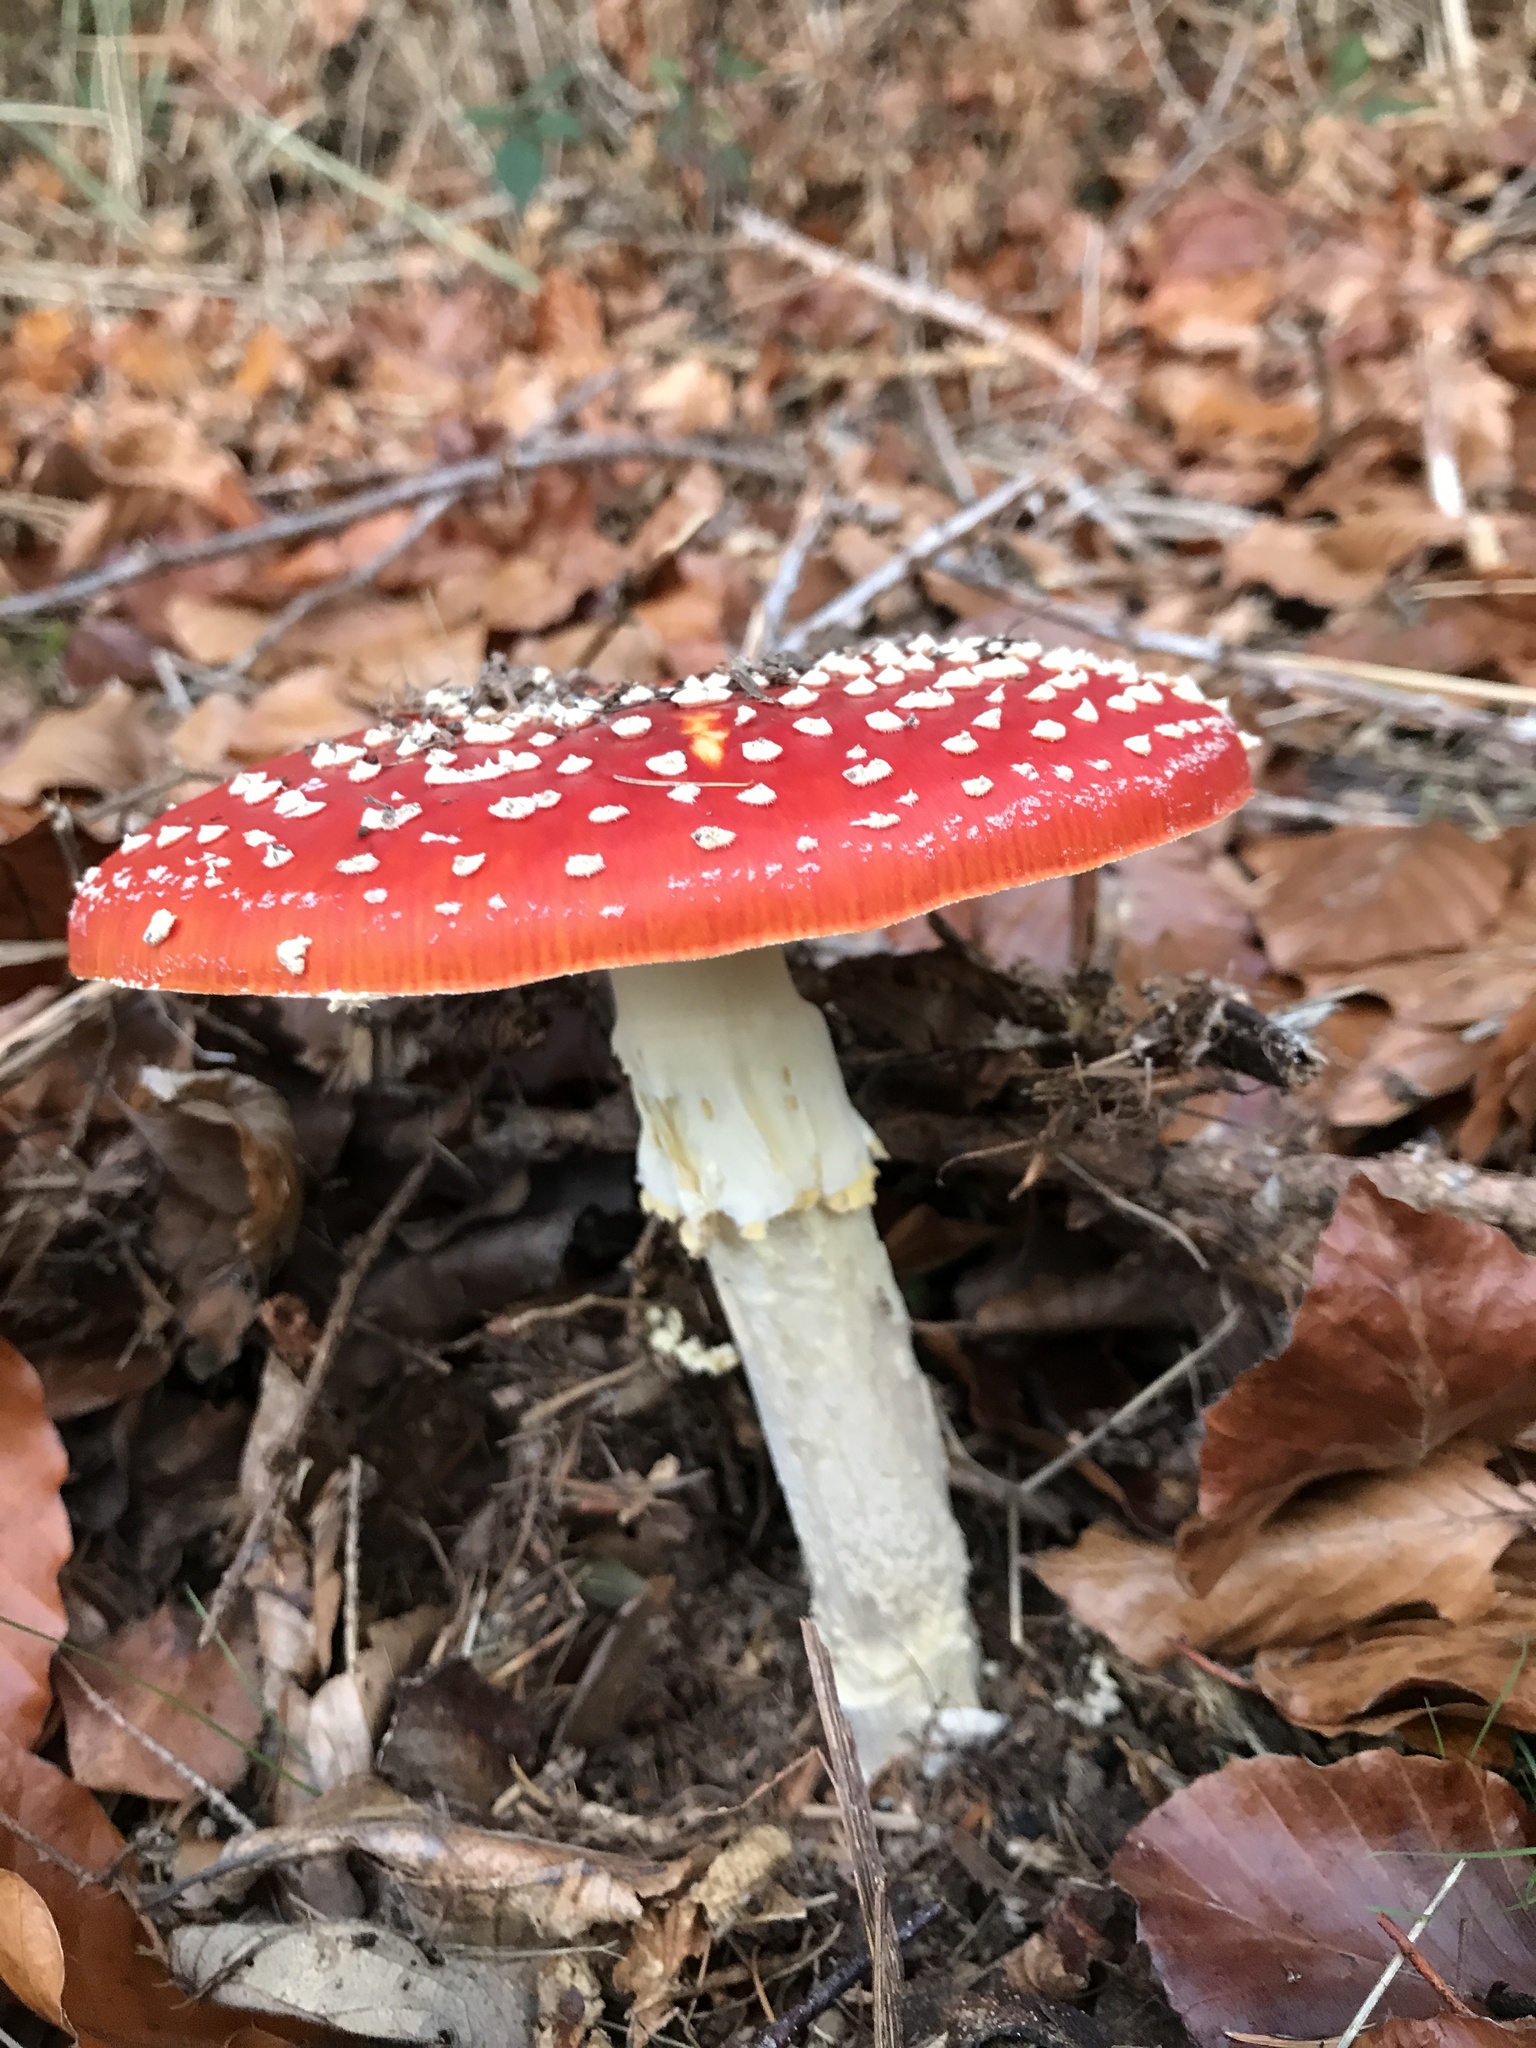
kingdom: Fungi
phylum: Basidiomycota
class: Agaricomycetes
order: Agaricales
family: Amanitaceae
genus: Amanita
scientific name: Amanita muscaria
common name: Fly agaric
